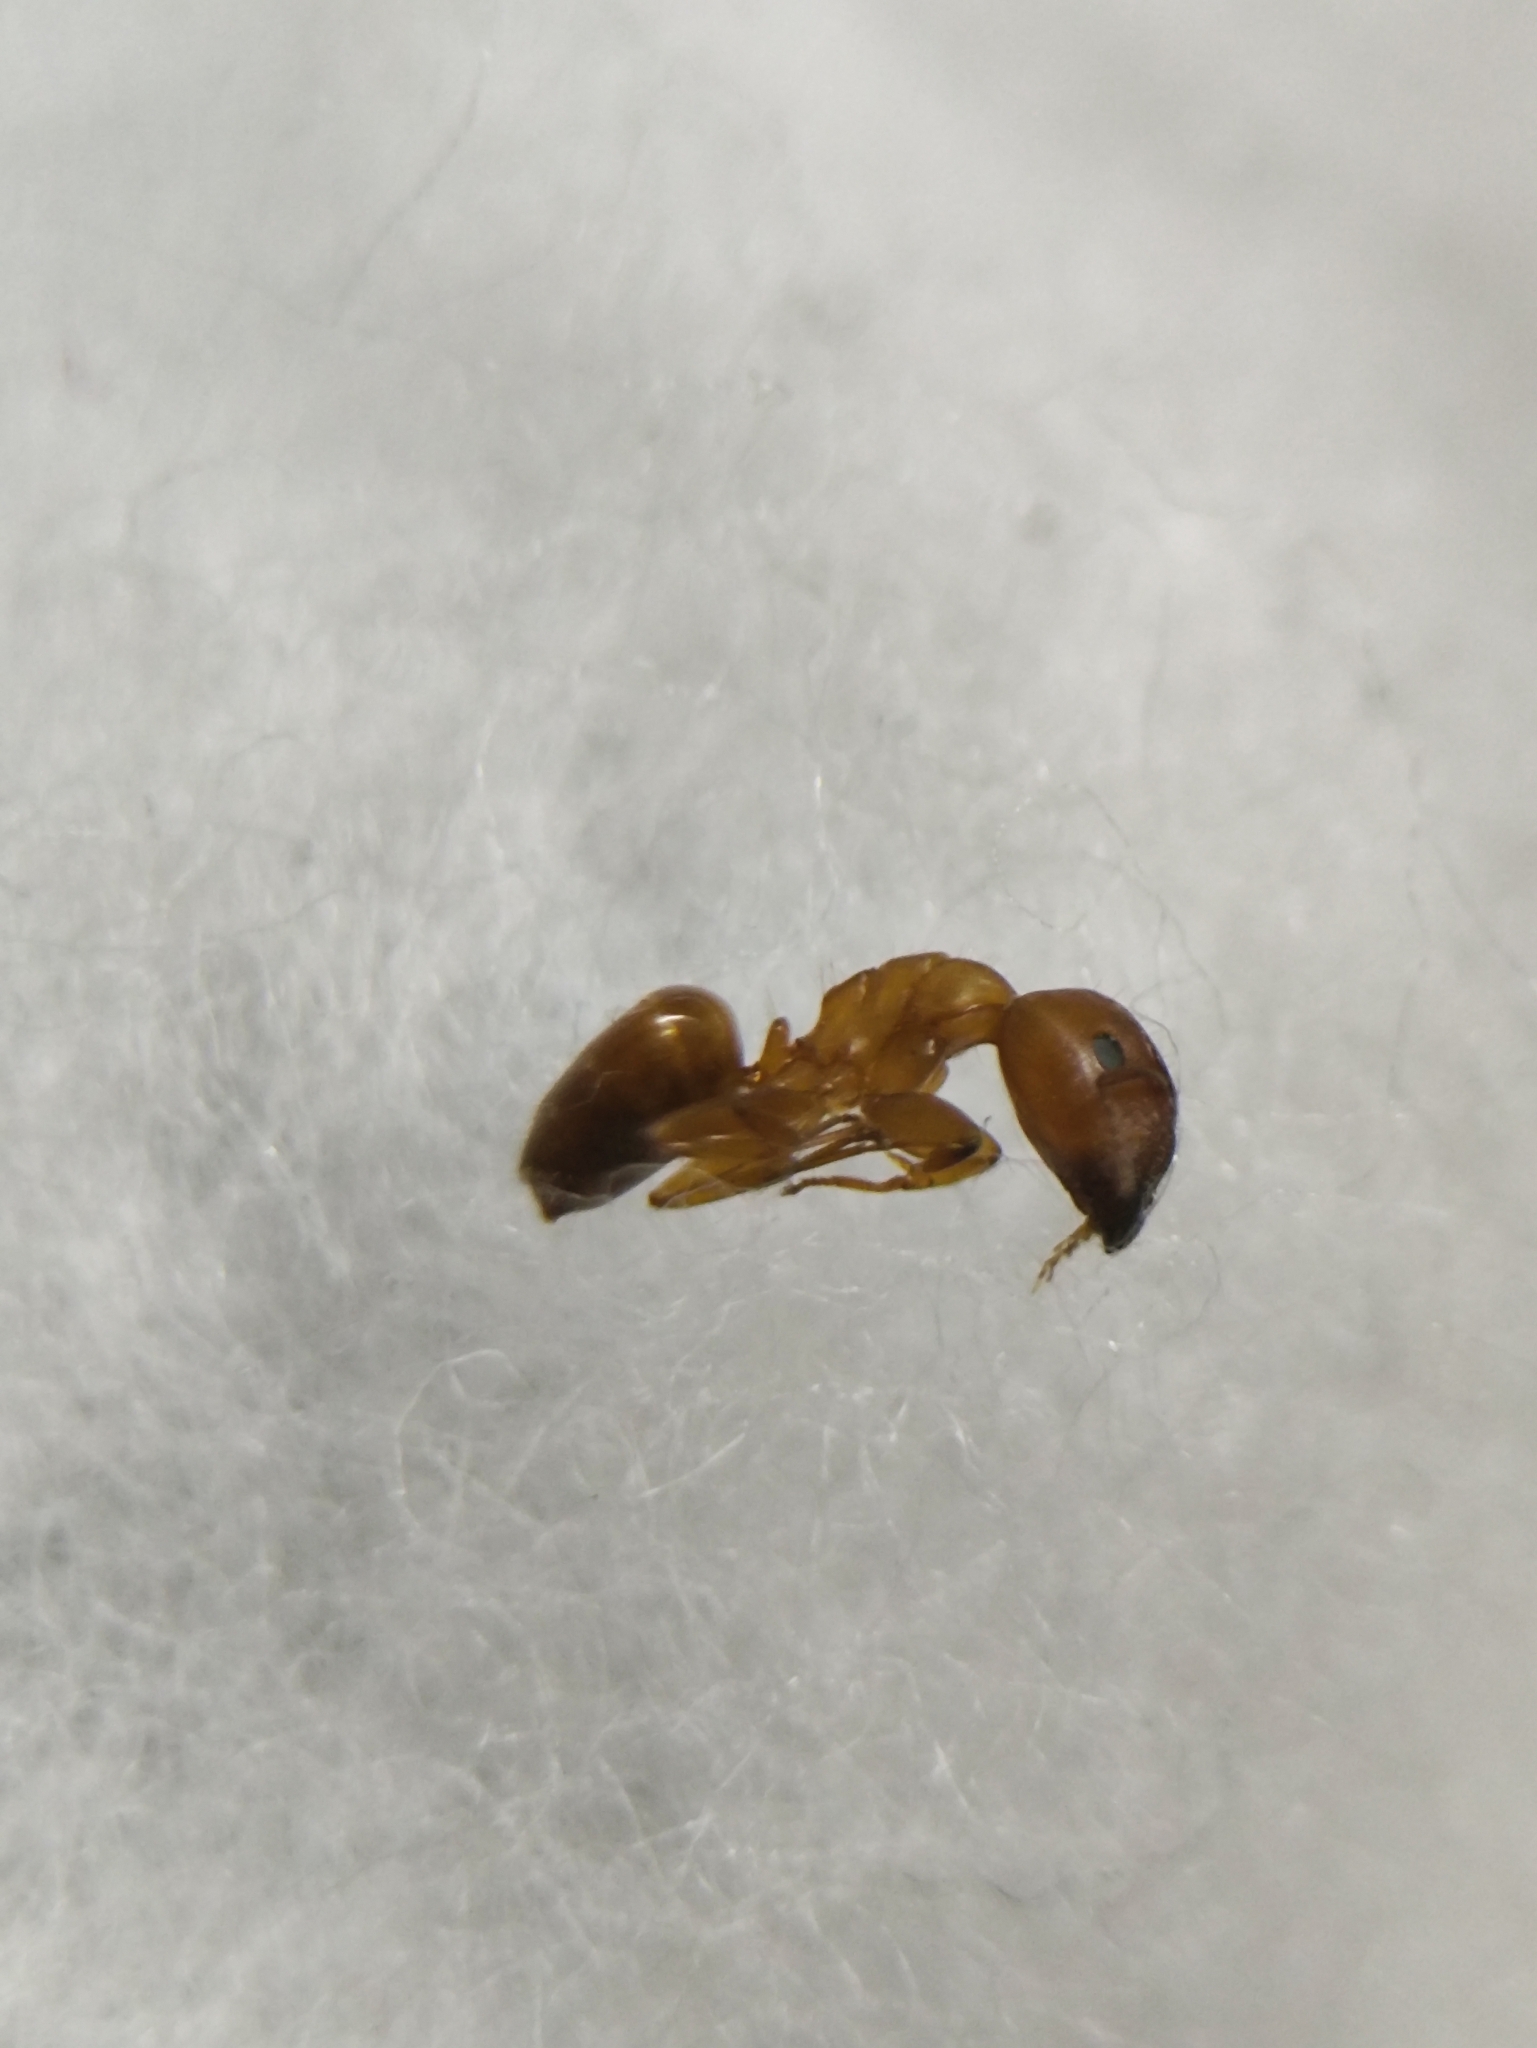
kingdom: Animalia
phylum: Arthropoda
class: Insecta
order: Hymenoptera
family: Formicidae
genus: Camponotus
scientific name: Camponotus nirvanae
